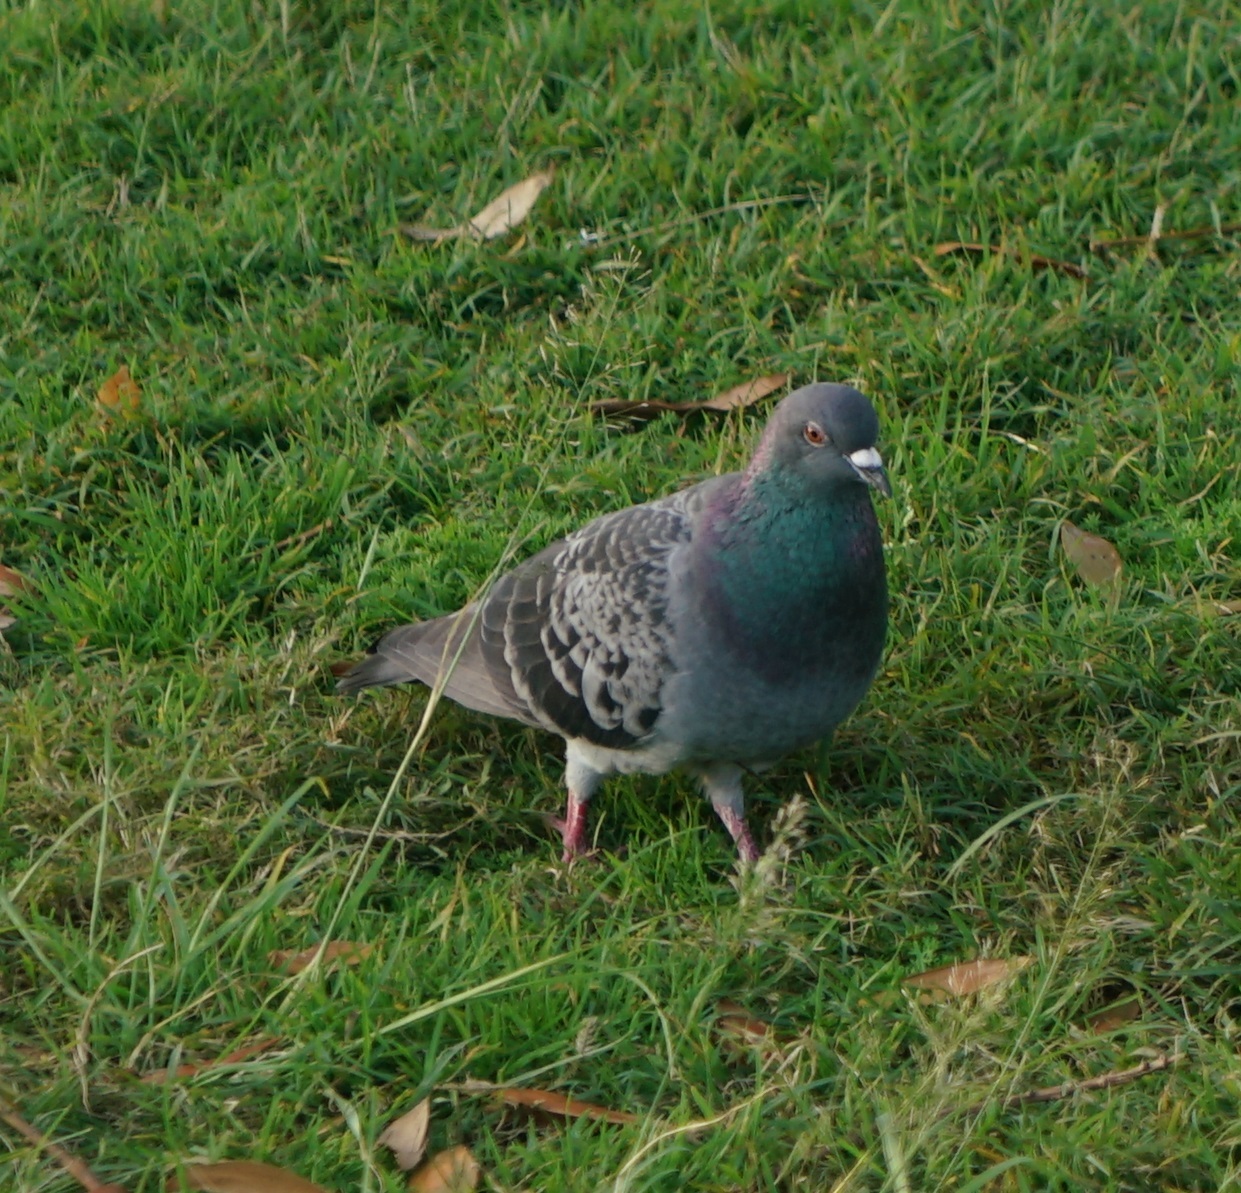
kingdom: Animalia
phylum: Chordata
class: Aves
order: Columbiformes
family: Columbidae
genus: Columba
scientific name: Columba livia
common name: Rock pigeon
